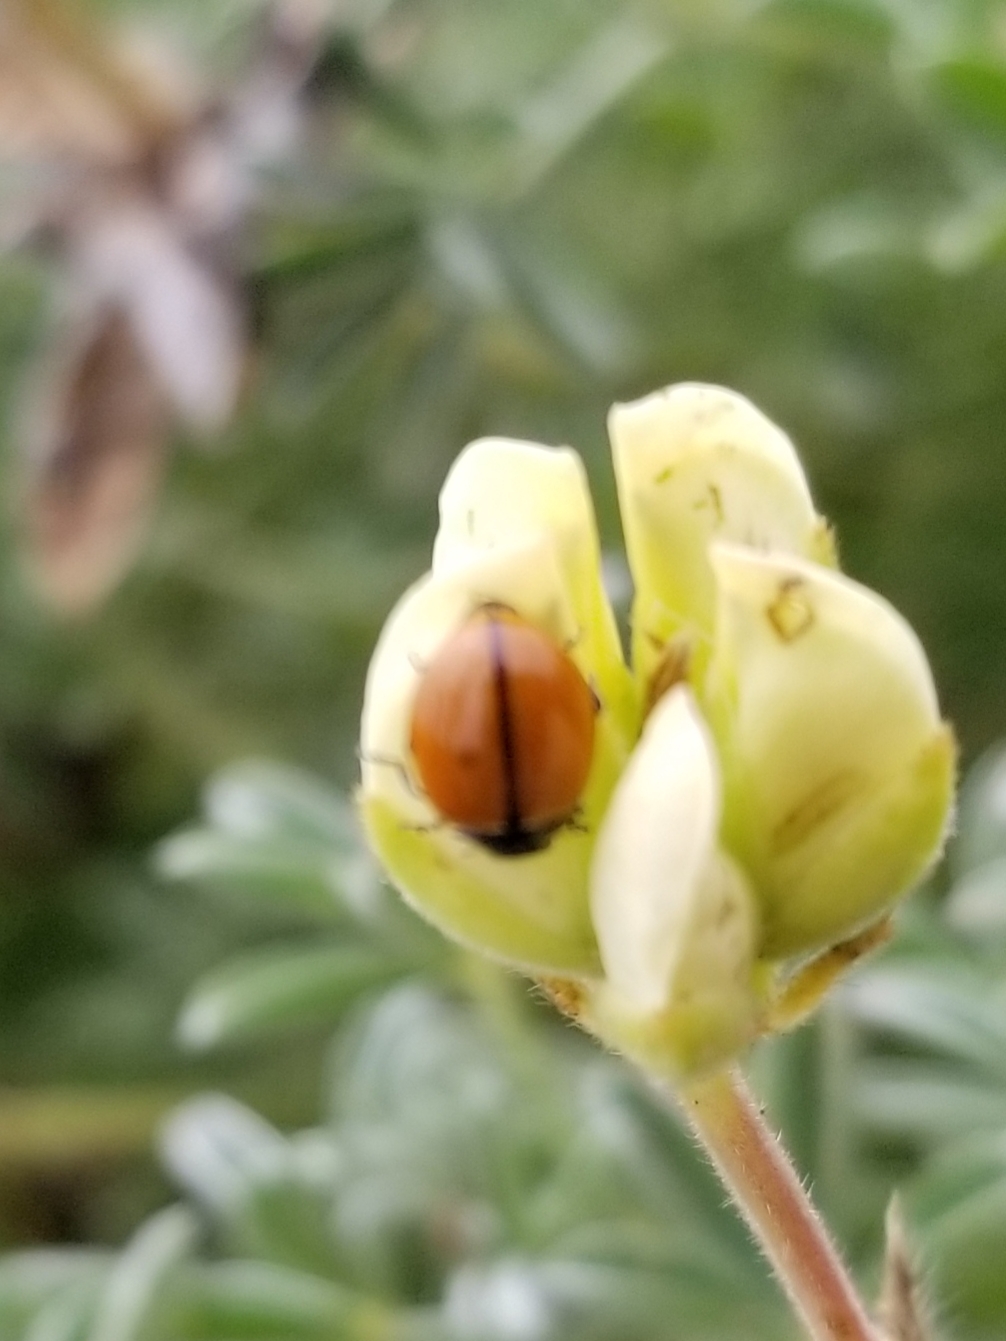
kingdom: Animalia
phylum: Arthropoda
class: Insecta
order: Coleoptera
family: Coccinellidae
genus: Coccinella
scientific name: Coccinella californica
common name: Lady beetle
